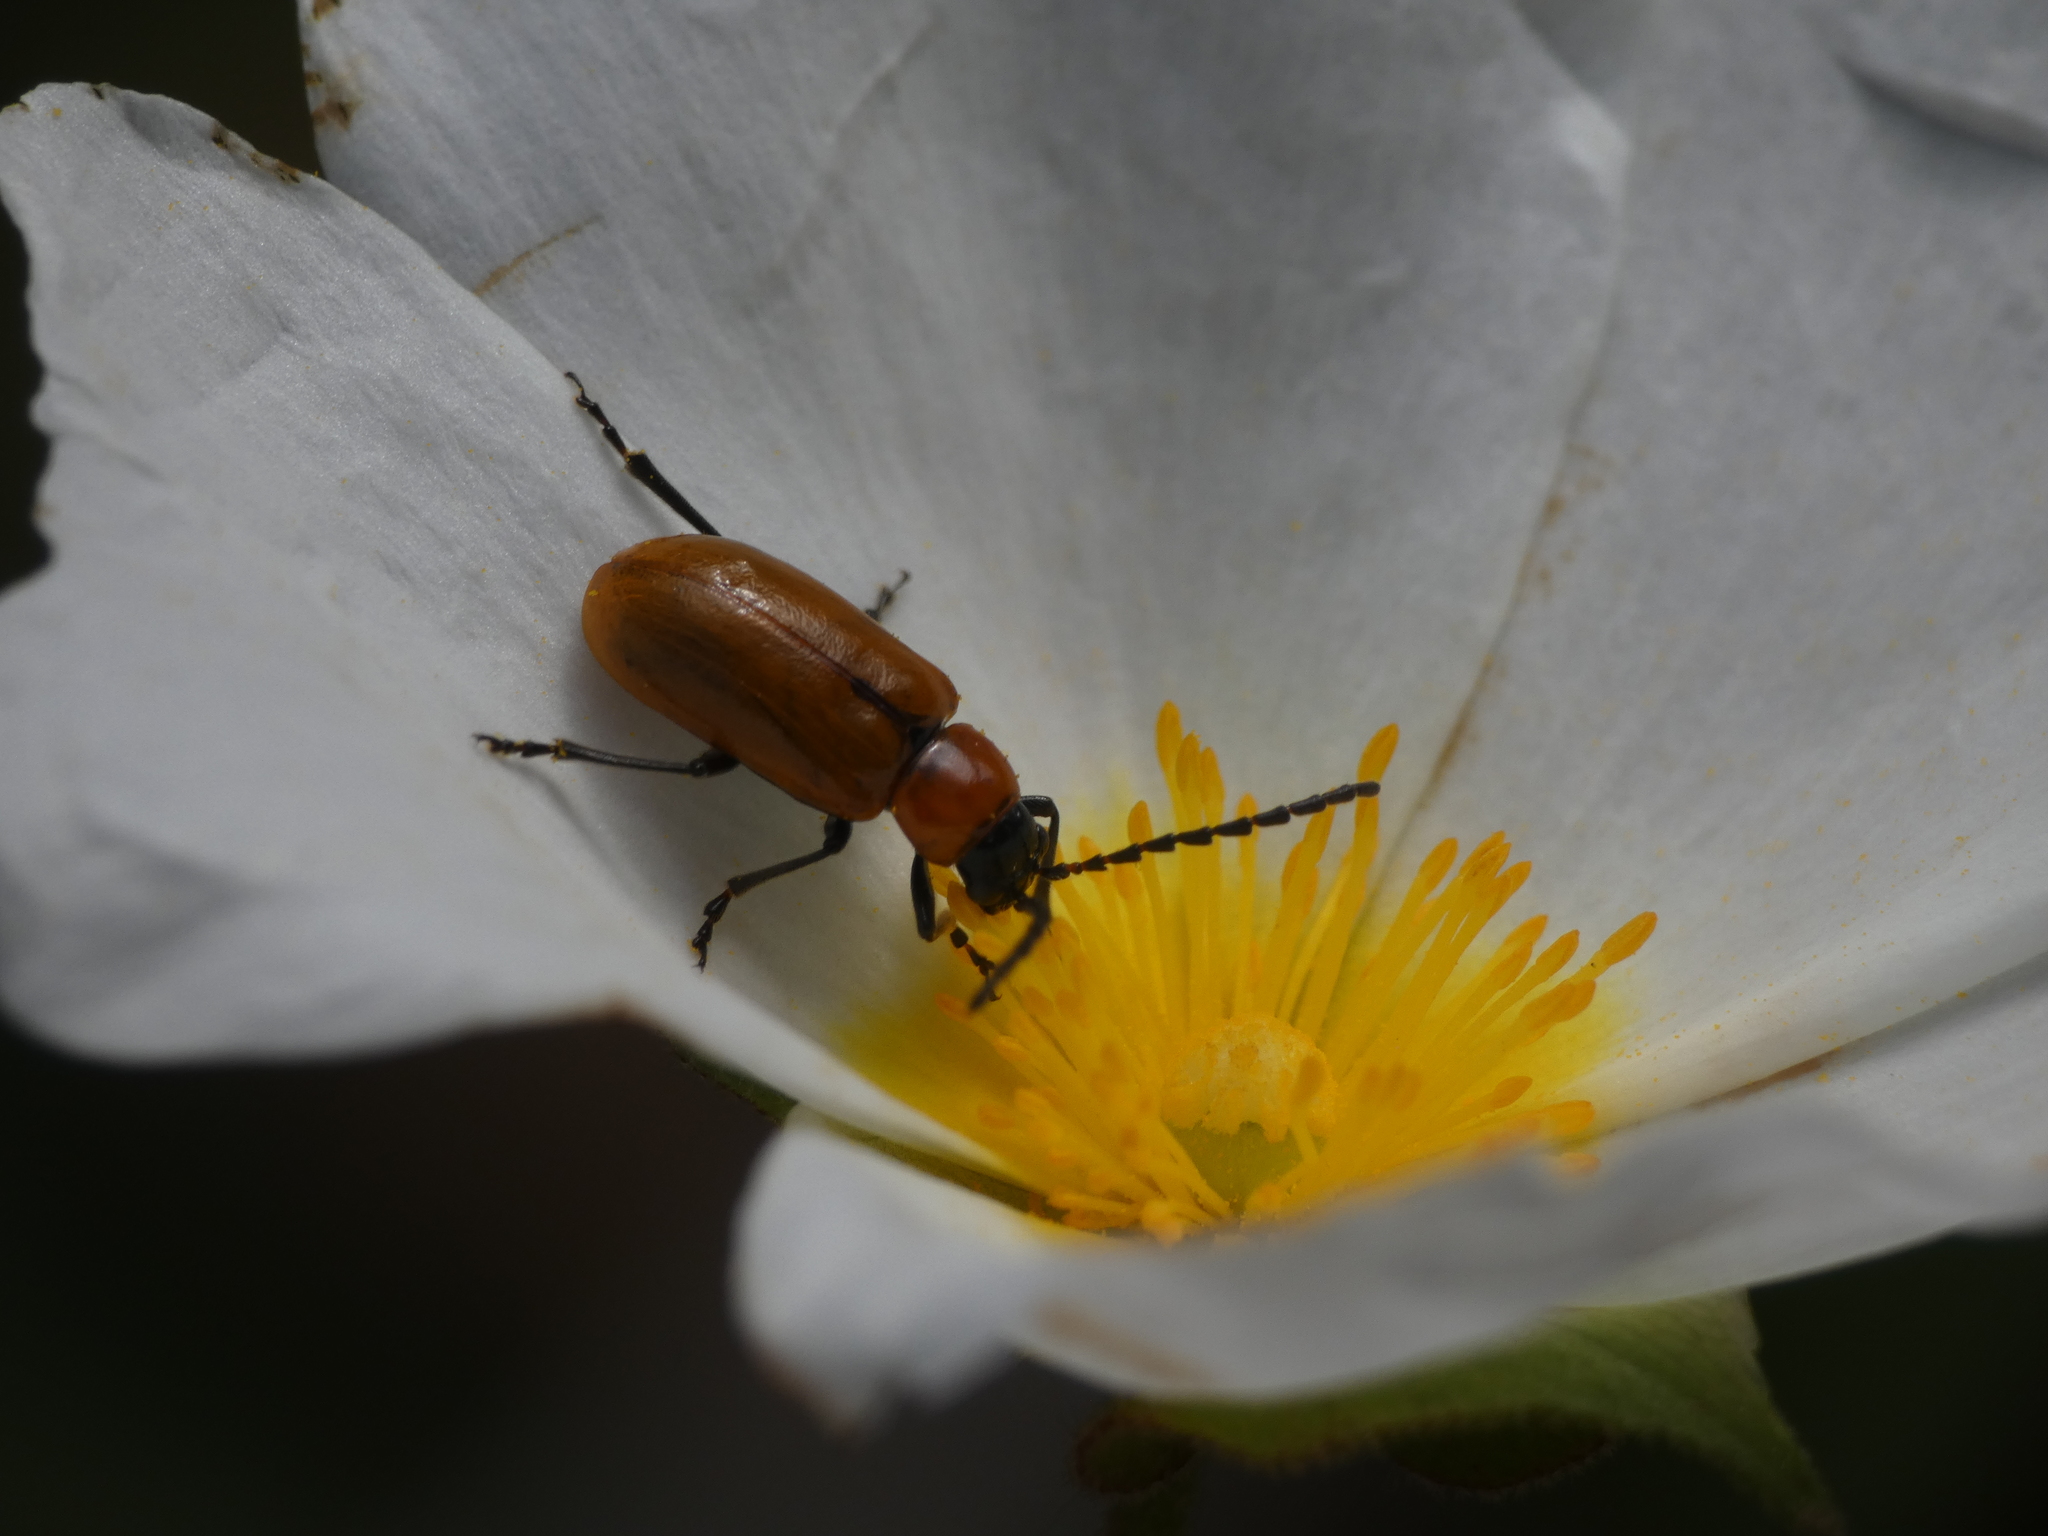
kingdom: Animalia
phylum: Arthropoda
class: Insecta
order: Coleoptera
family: Chrysomelidae
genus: Exosoma
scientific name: Exosoma lusitanicum
